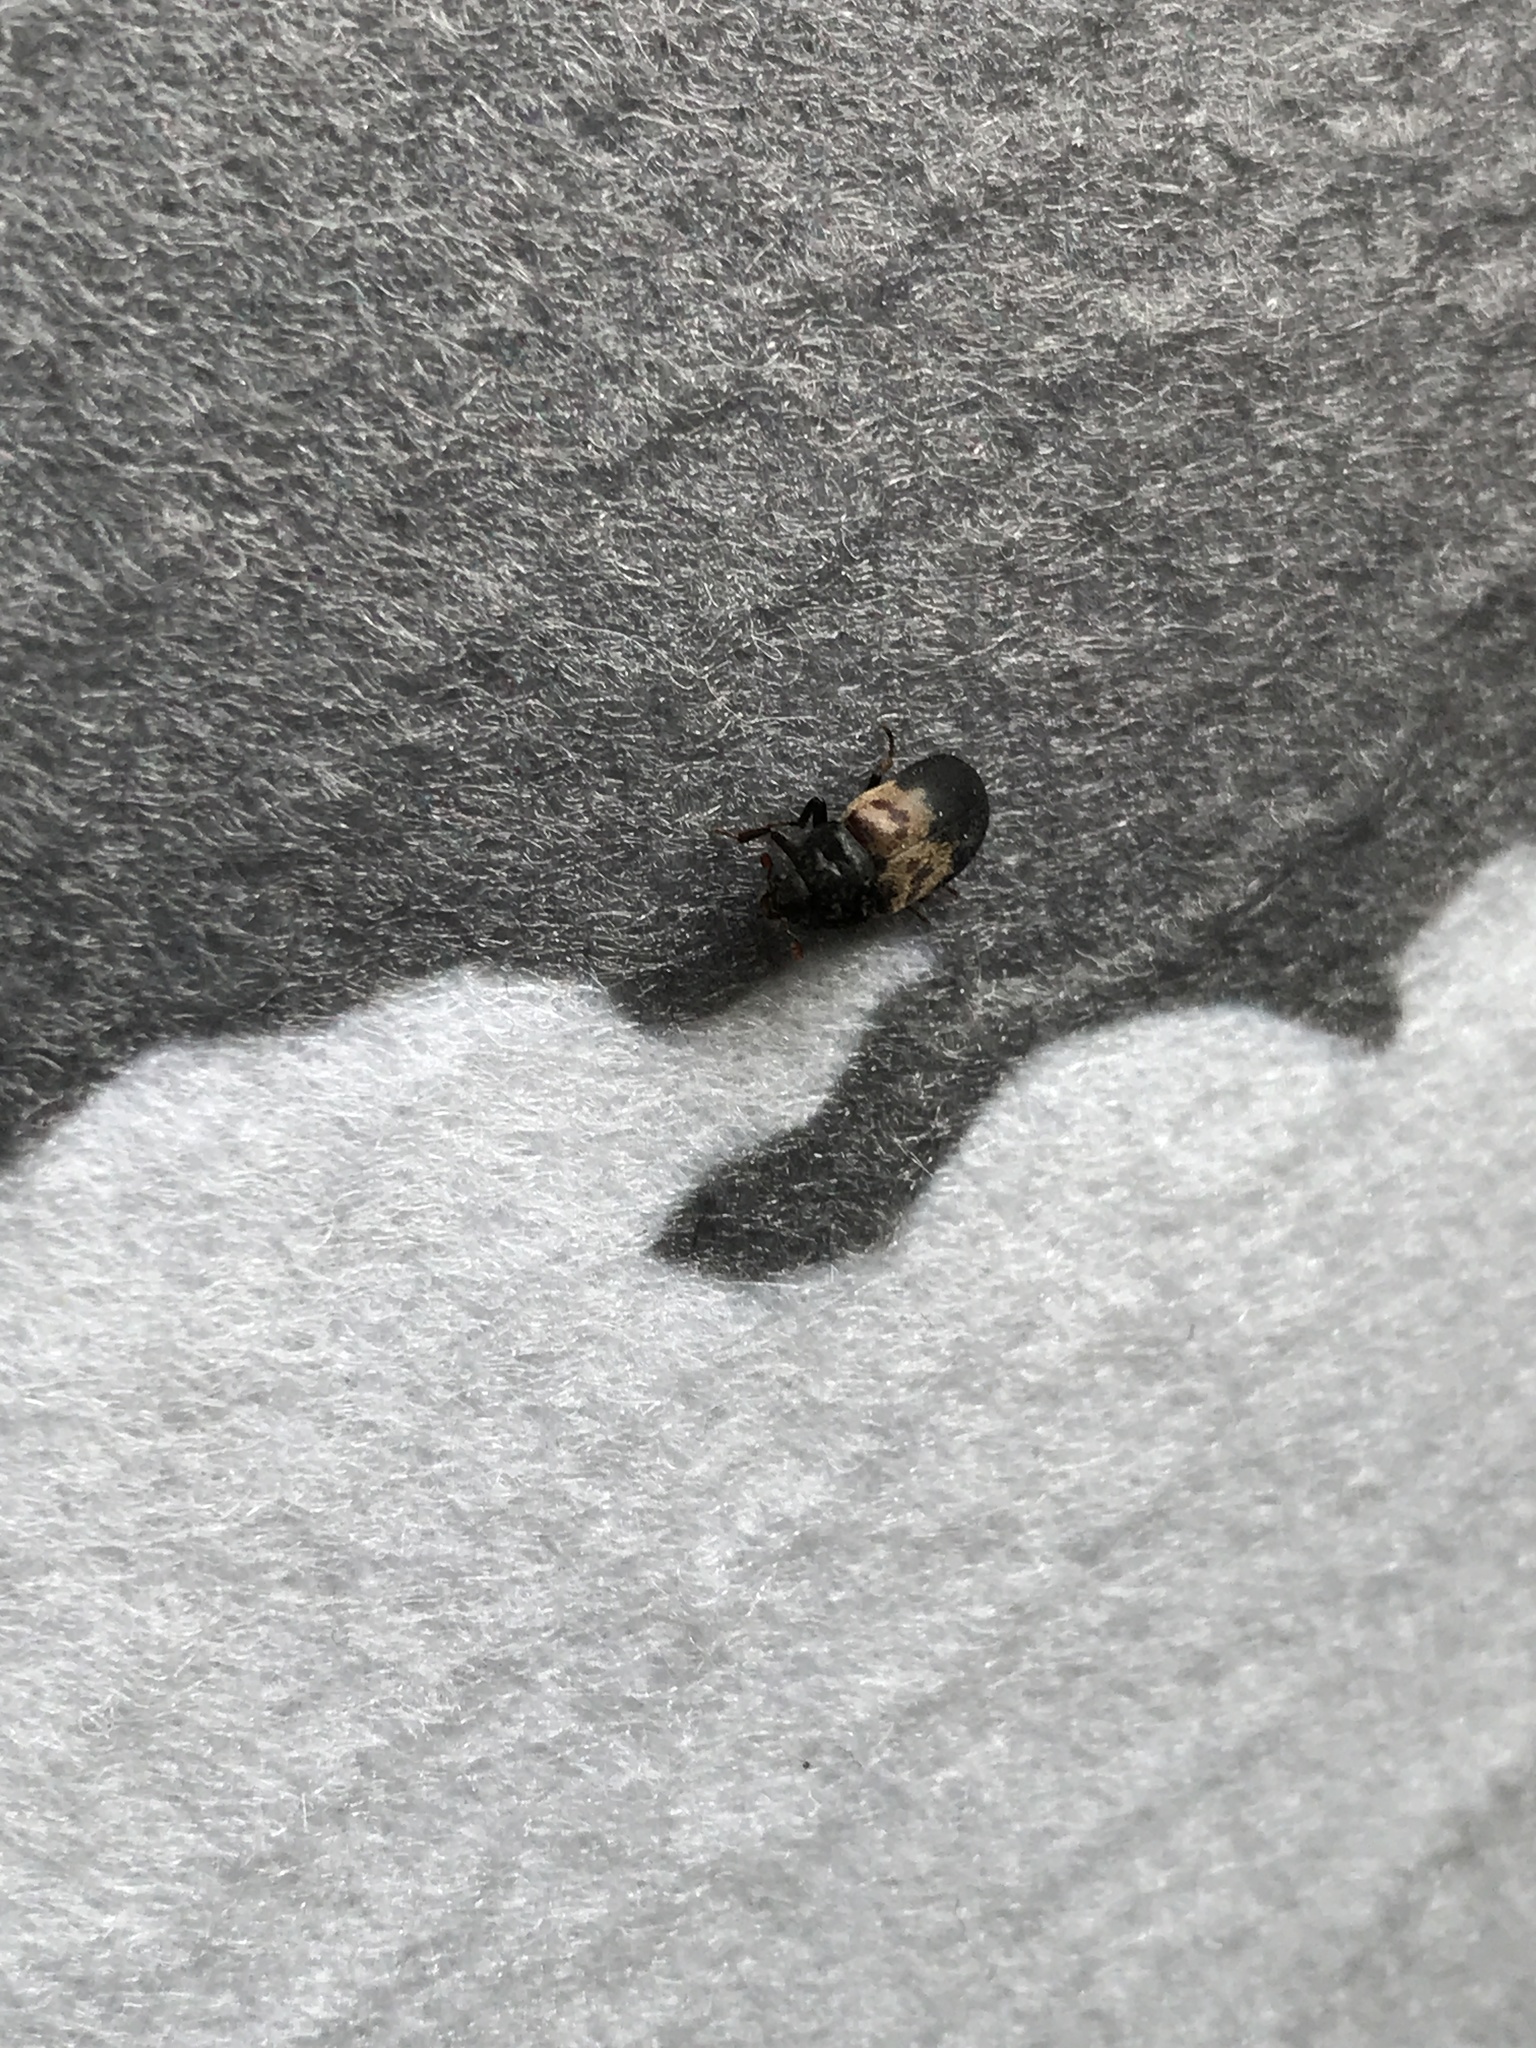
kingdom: Animalia
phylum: Arthropoda
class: Insecta
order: Coleoptera
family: Dermestidae
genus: Dermestes
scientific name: Dermestes lardarius
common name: Larder beetle
